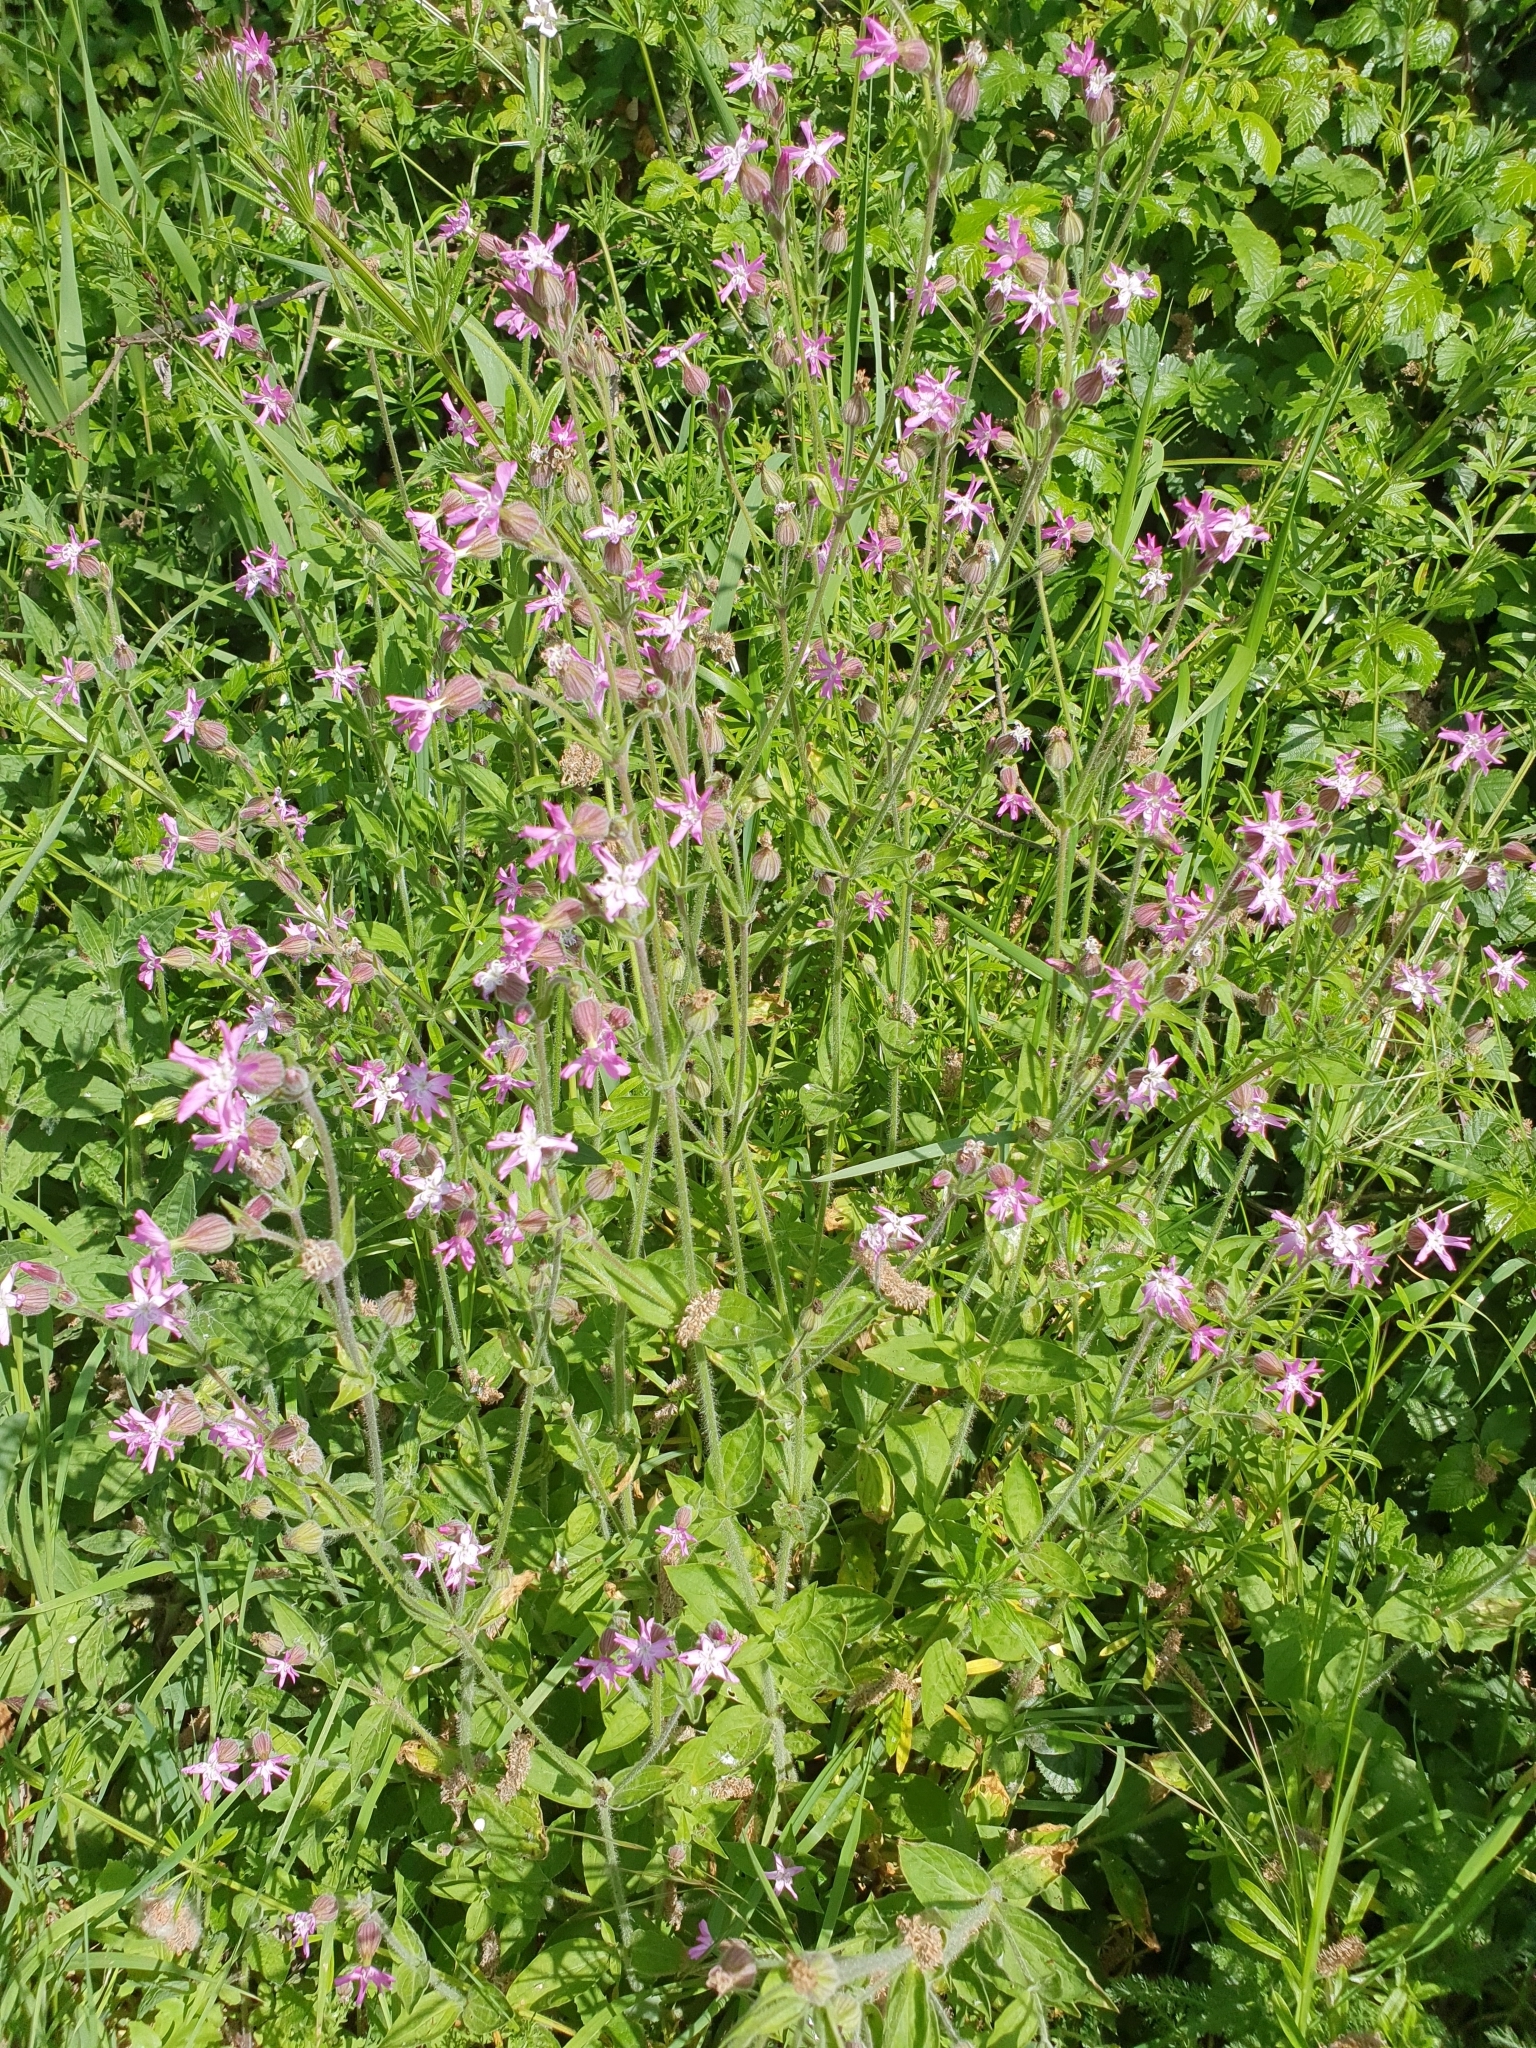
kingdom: Plantae
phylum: Tracheophyta
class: Magnoliopsida
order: Caryophyllales
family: Caryophyllaceae
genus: Silene
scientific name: Silene dioica
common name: Red campion
